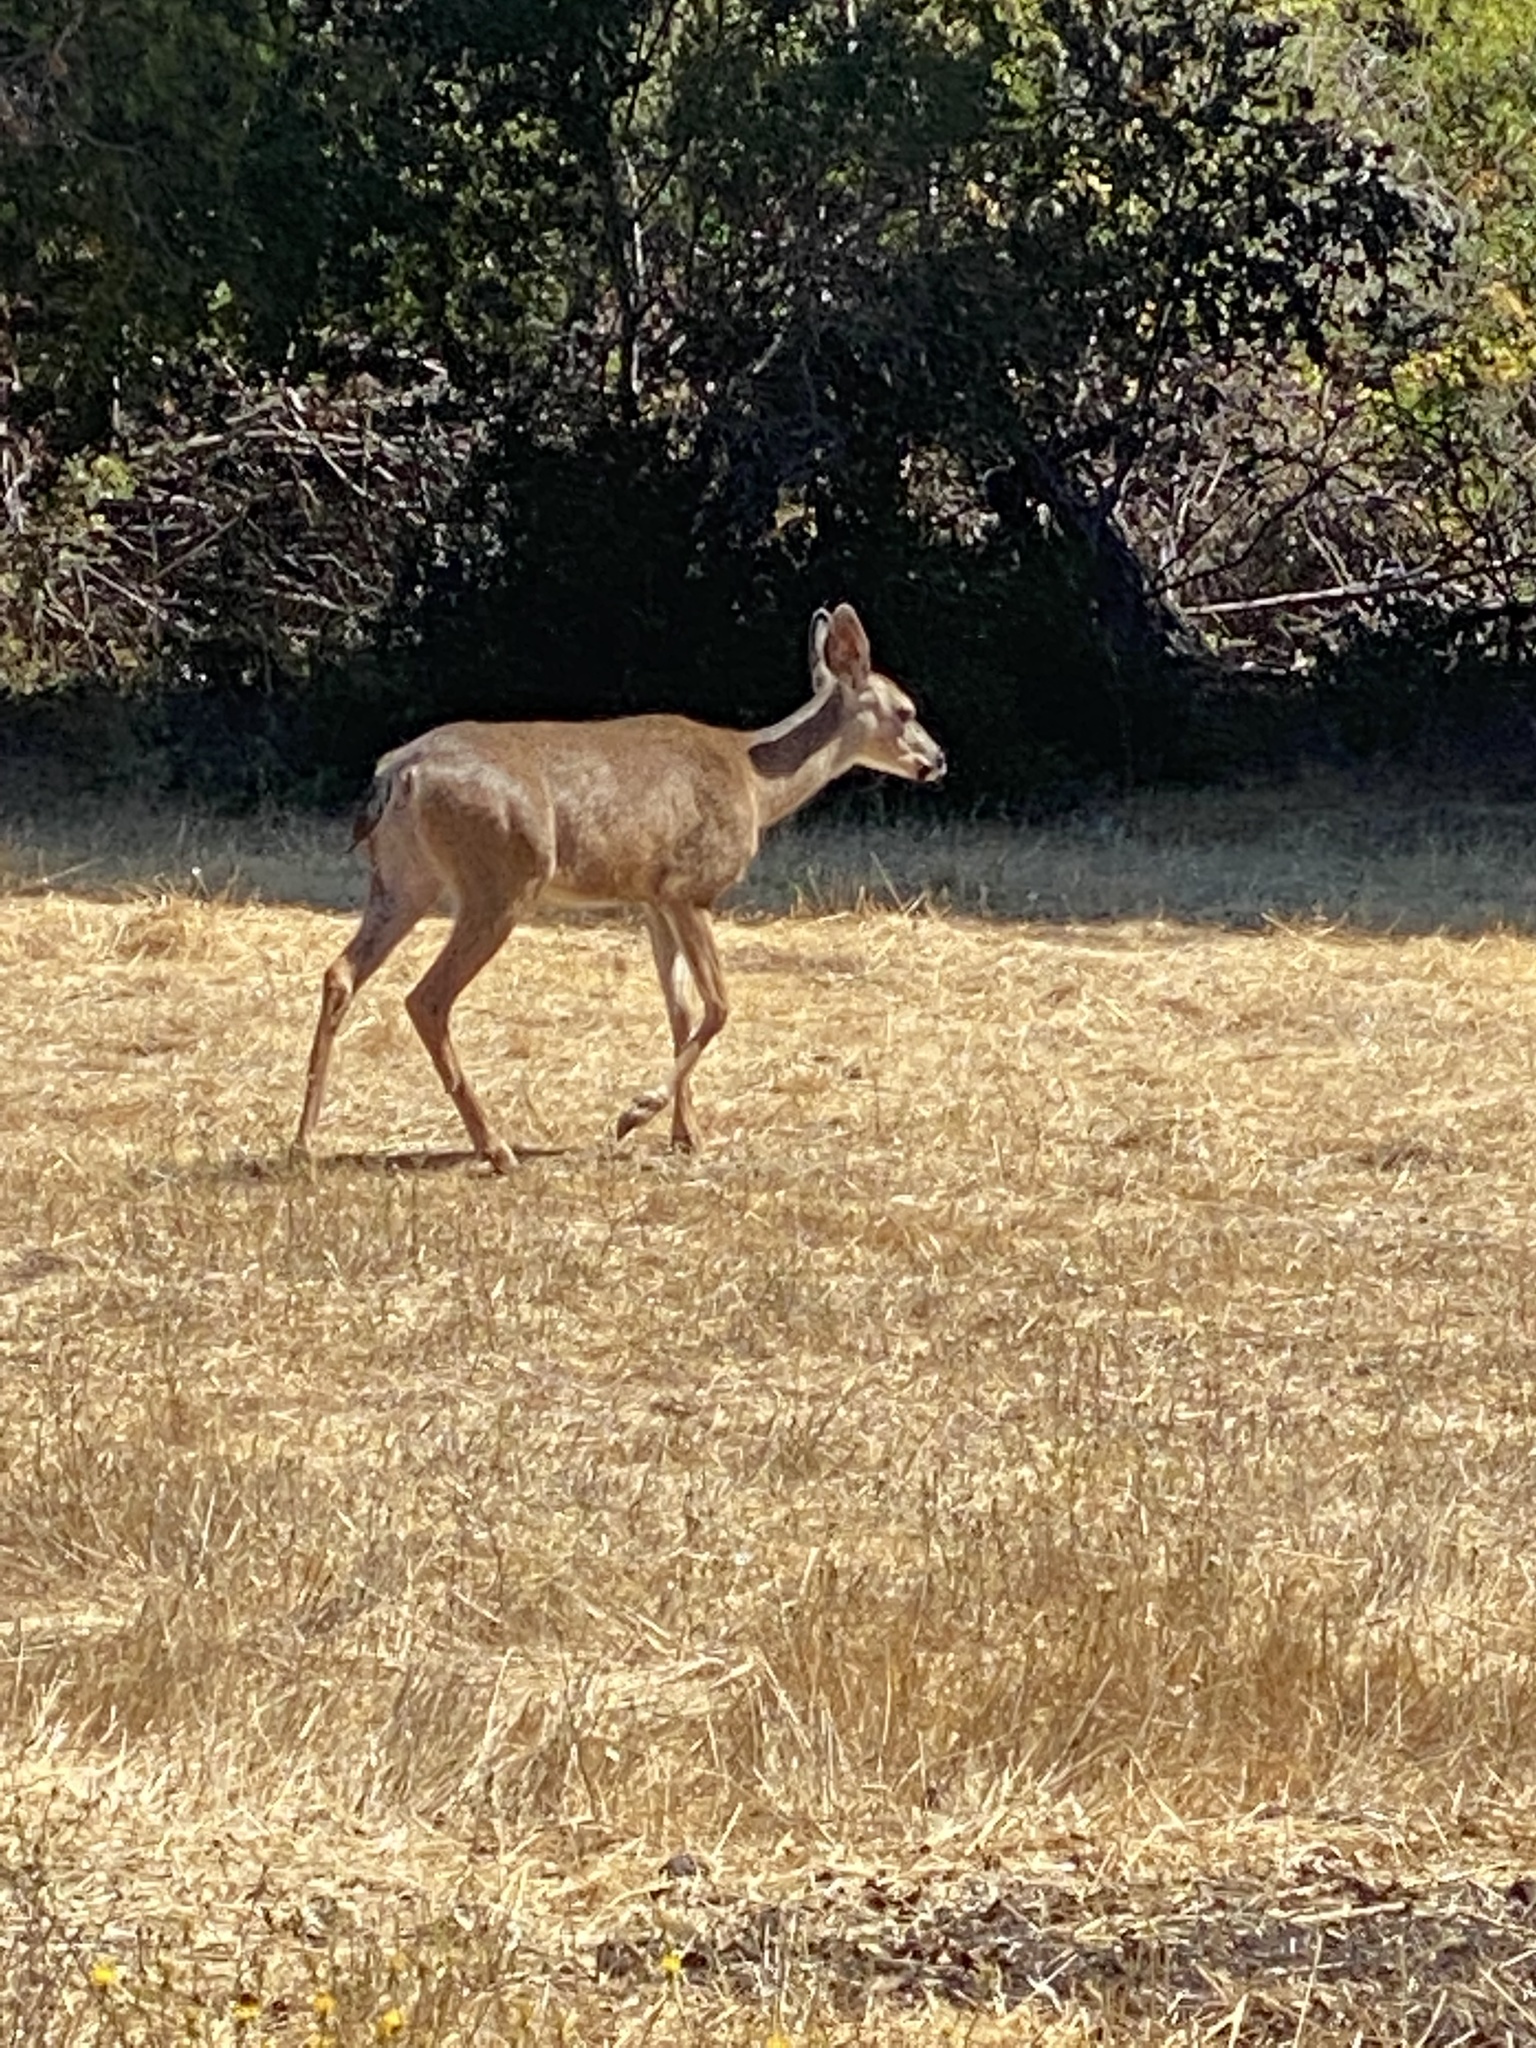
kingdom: Animalia
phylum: Chordata
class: Mammalia
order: Artiodactyla
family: Cervidae
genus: Odocoileus
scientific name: Odocoileus hemionus
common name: Mule deer
